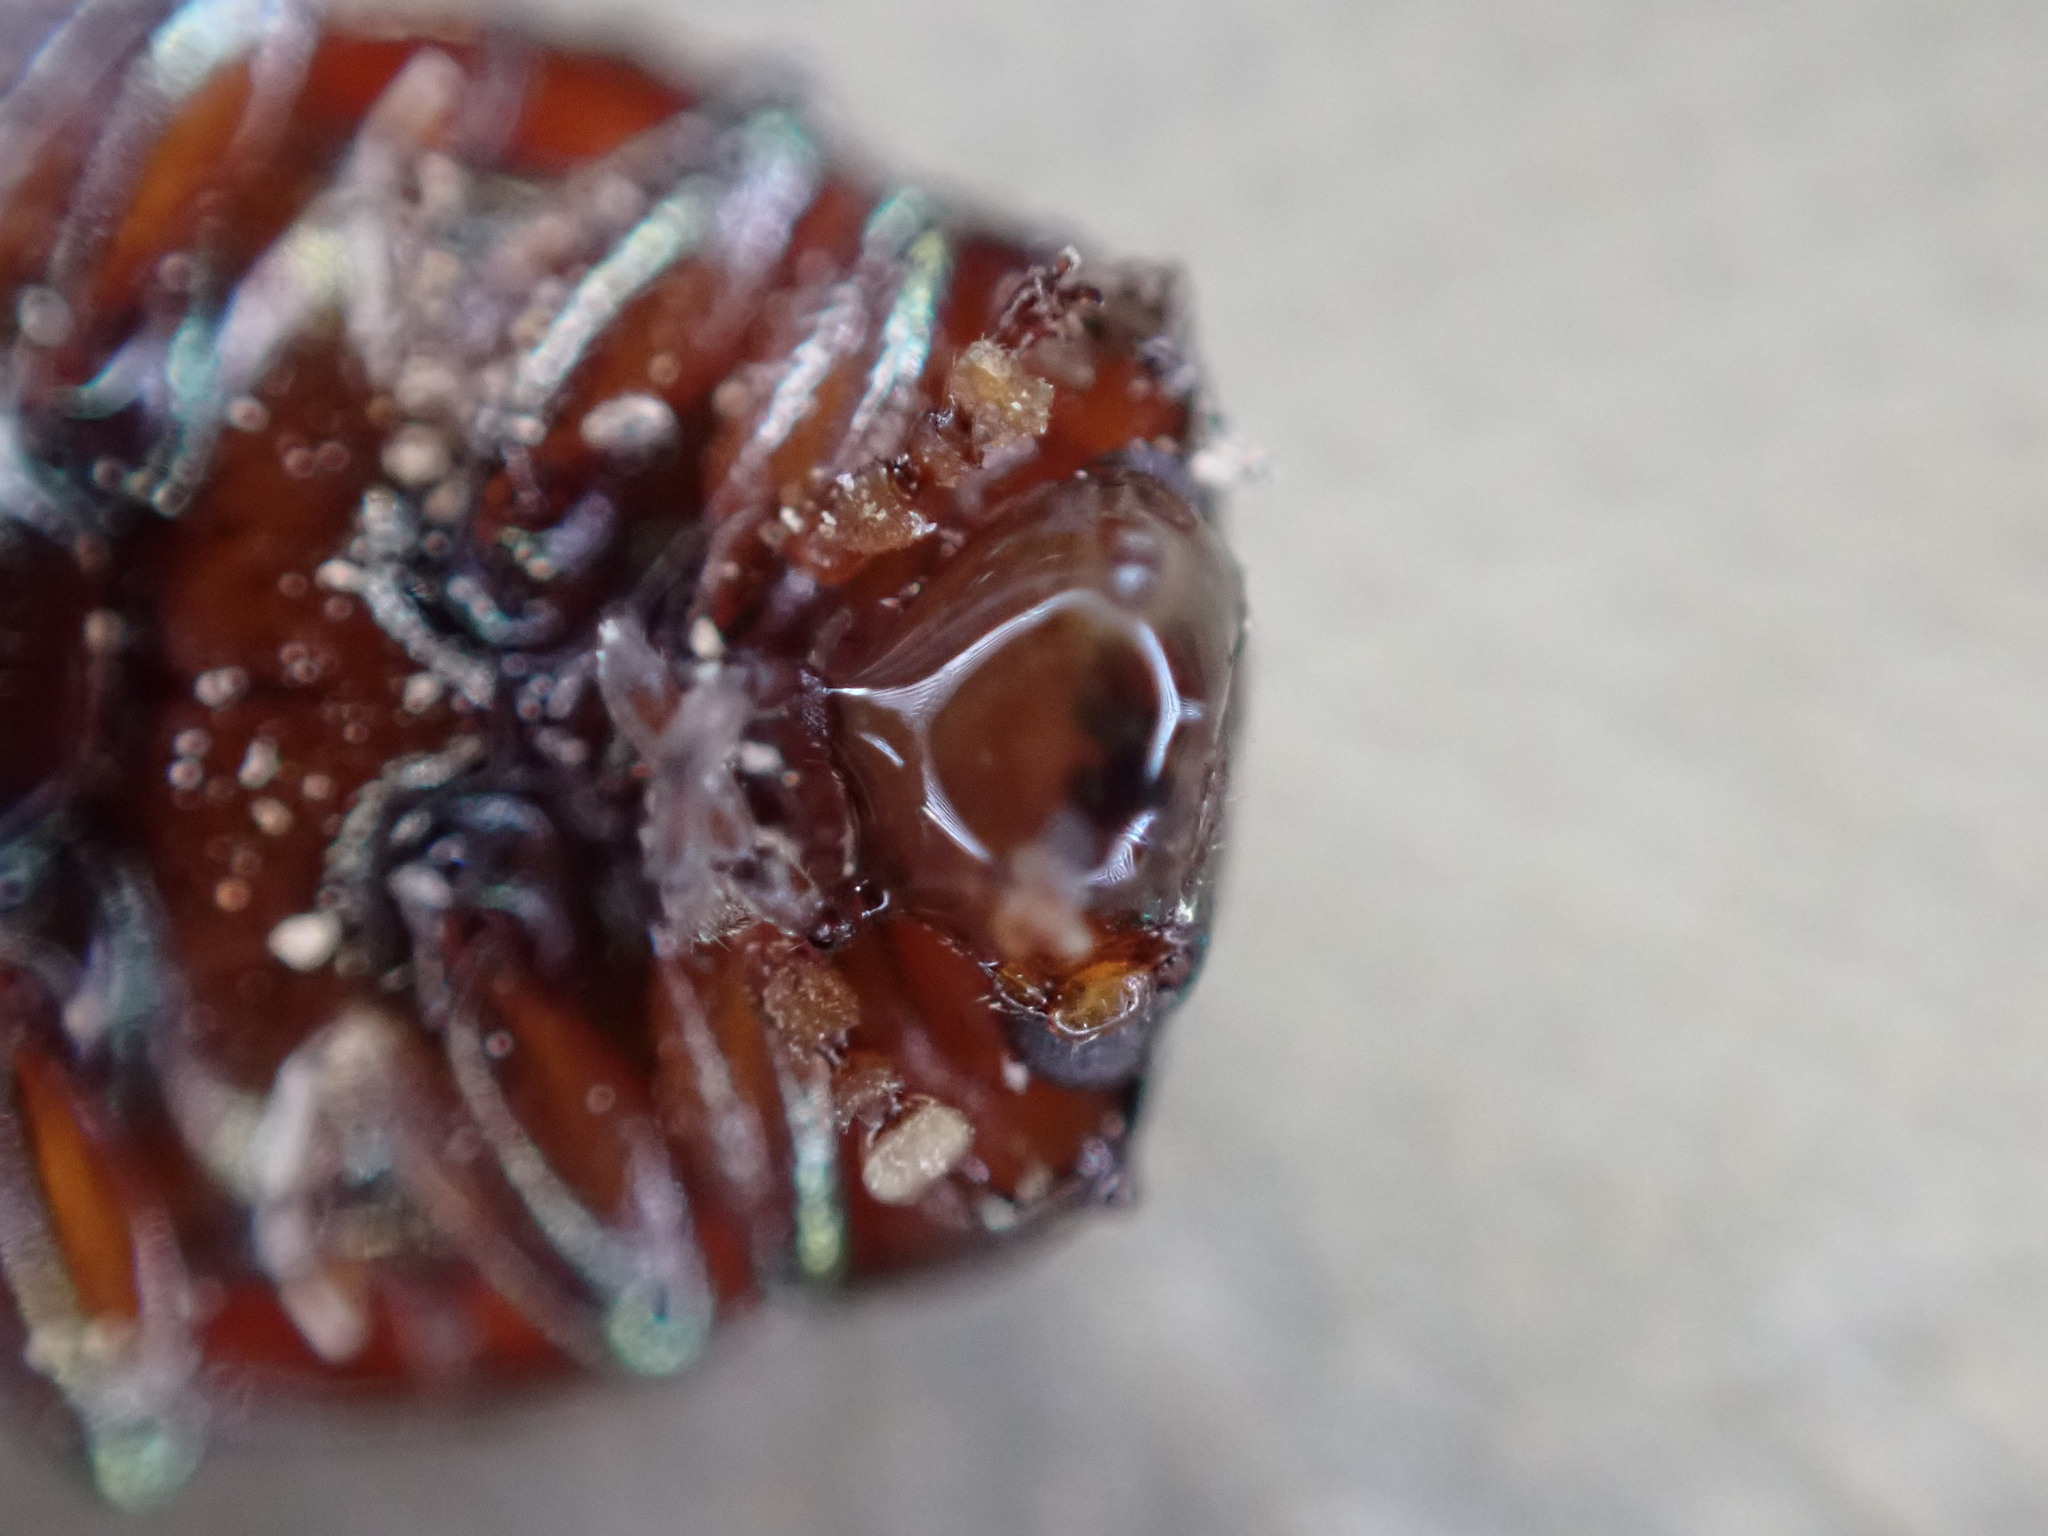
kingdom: Animalia
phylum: Arthropoda
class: Insecta
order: Coleoptera
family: Chrysomelidae
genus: Chrysolina
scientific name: Chrysolina americana
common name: Rosemary beetle
